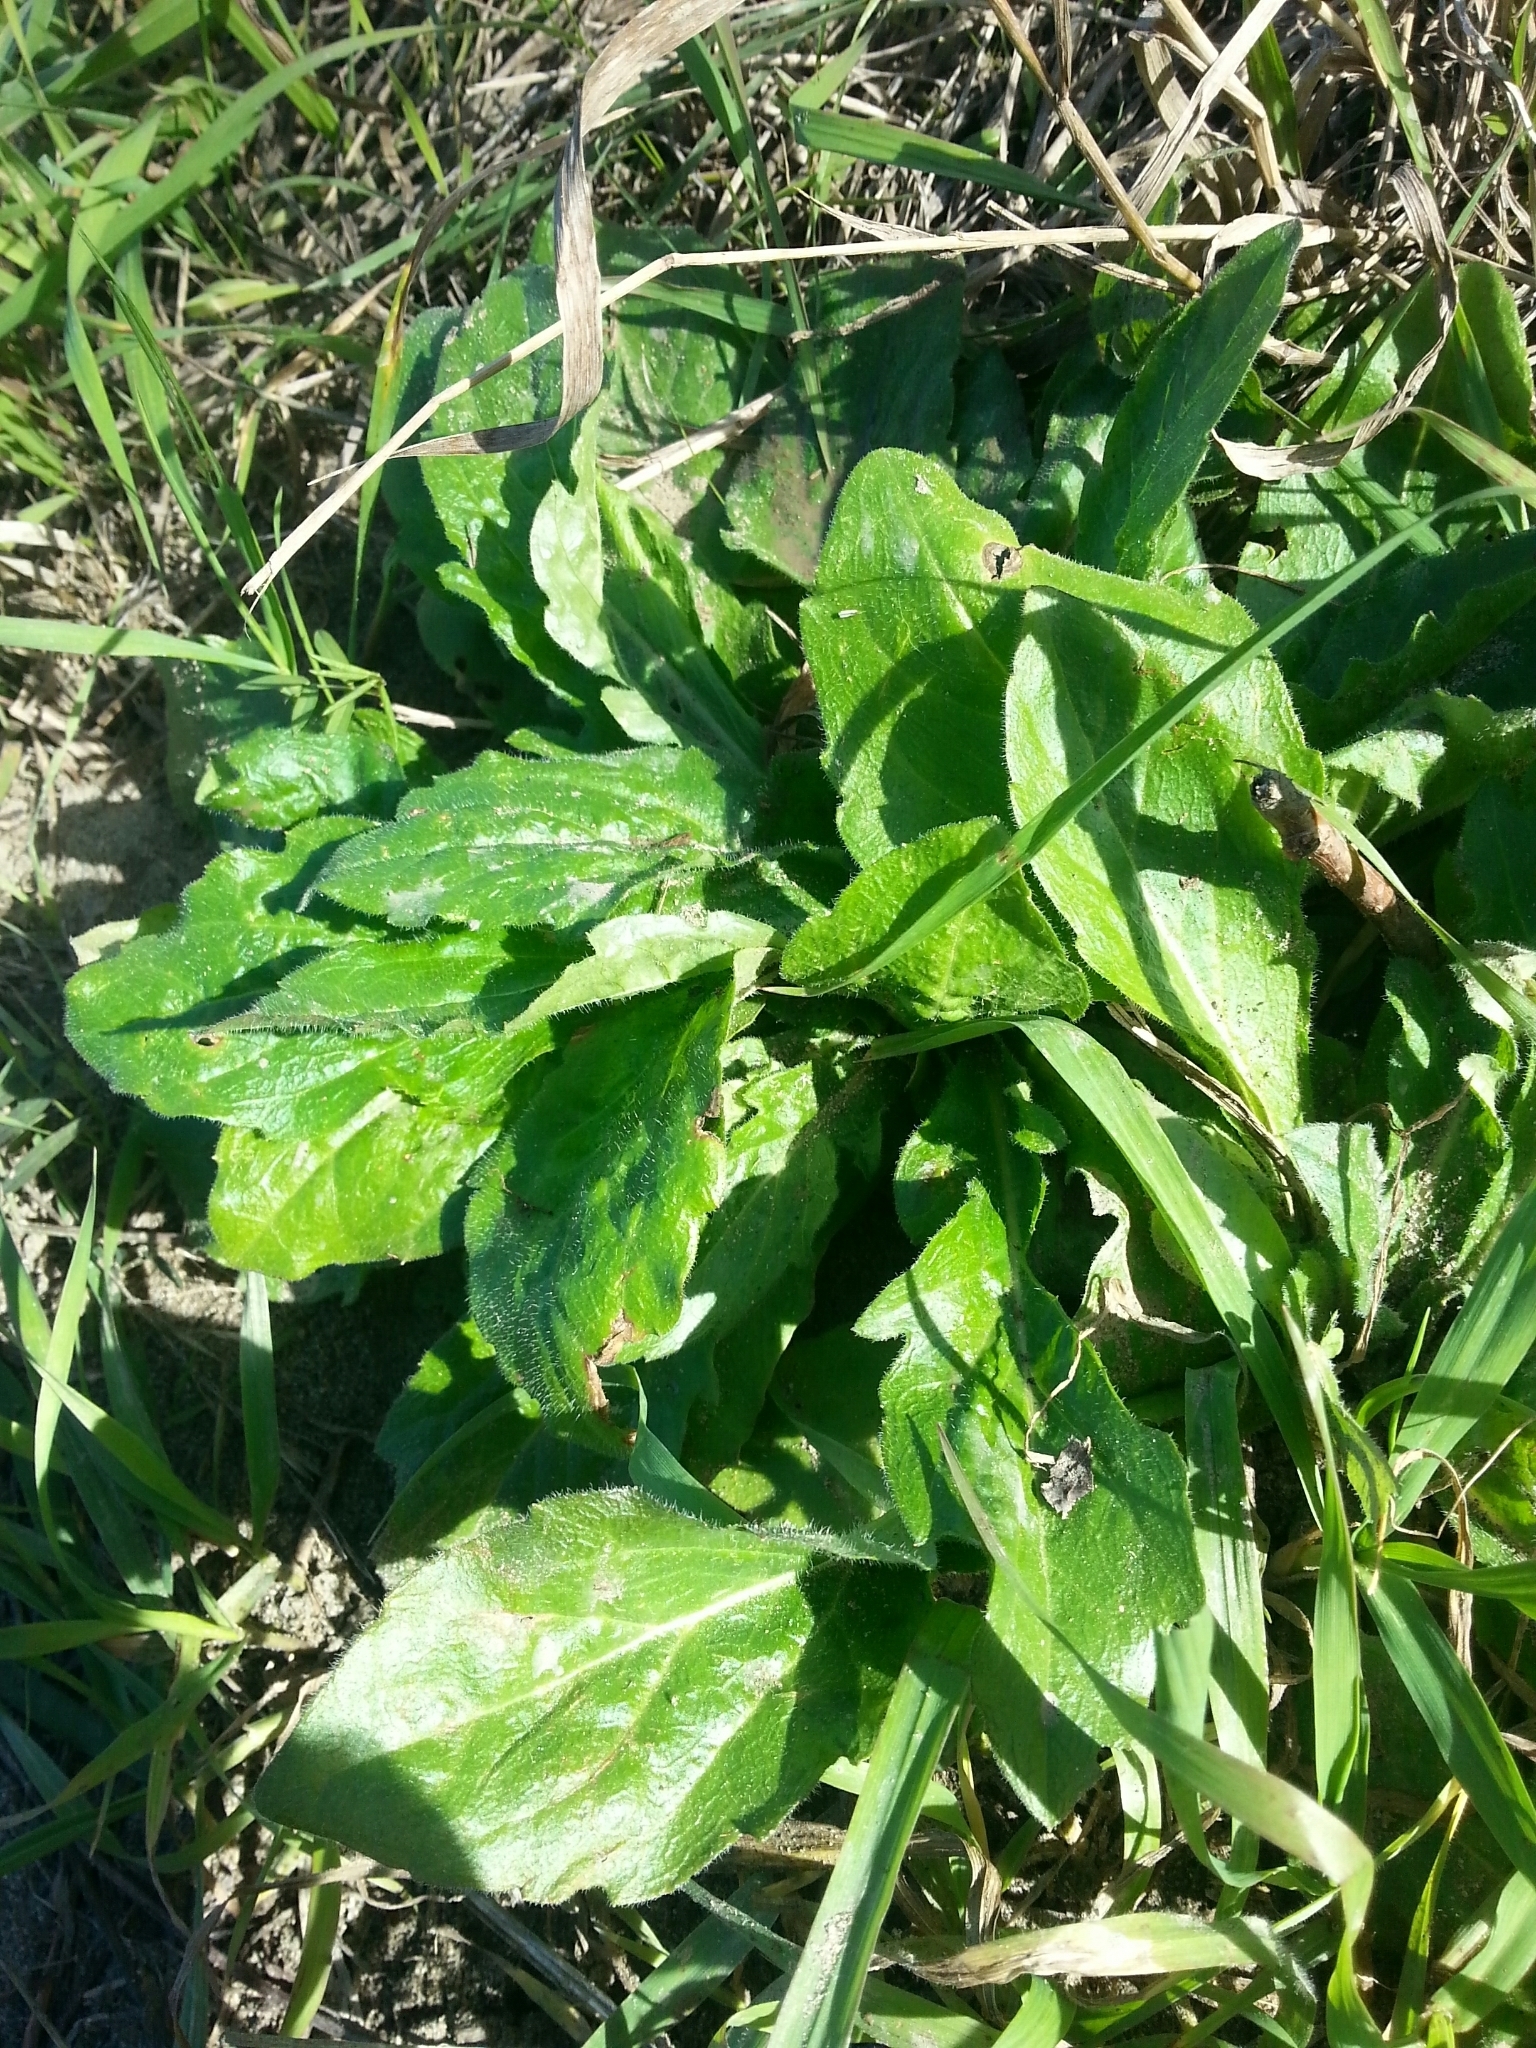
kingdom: Plantae
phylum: Tracheophyta
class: Magnoliopsida
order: Asterales
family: Asteraceae
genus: Erigeron
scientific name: Erigeron philadelphicus
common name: Robin's-plantain
